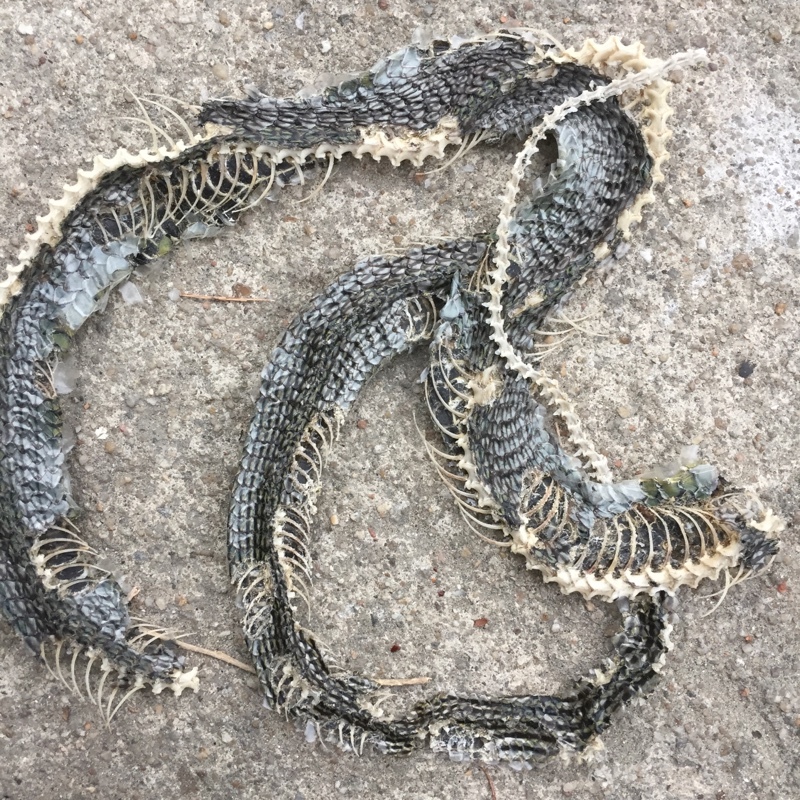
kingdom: Animalia
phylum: Chordata
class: Squamata
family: Colubridae
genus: Chrysopelea
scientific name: Chrysopelea ornata
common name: Golden flying snake
